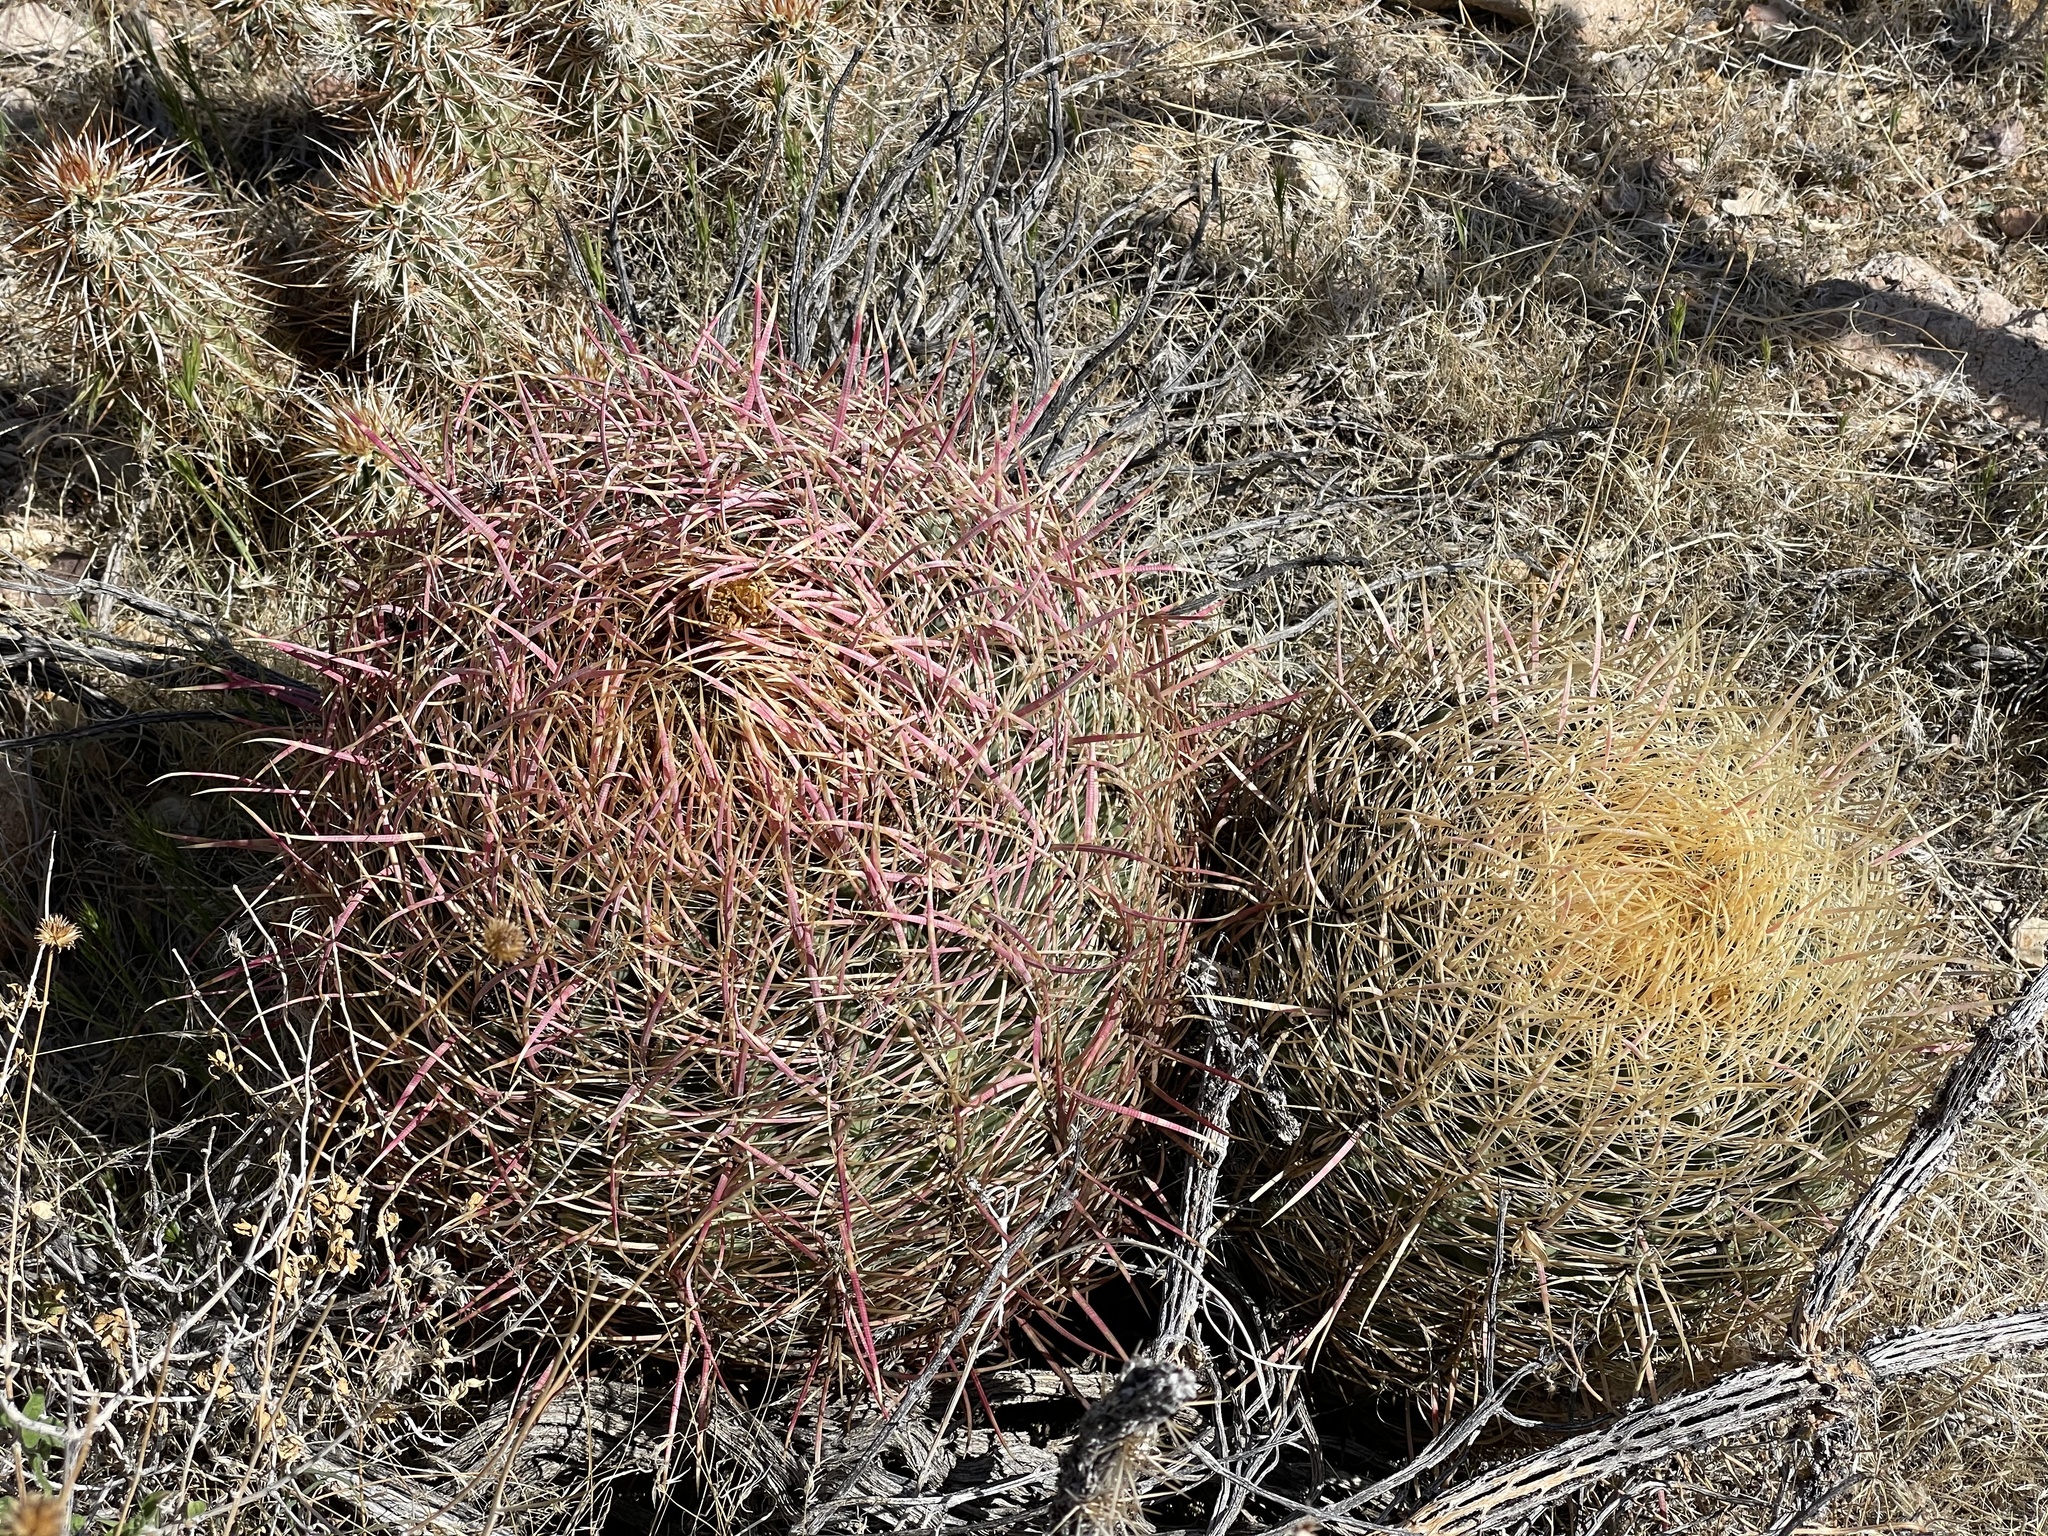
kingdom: Plantae
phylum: Tracheophyta
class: Magnoliopsida
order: Caryophyllales
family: Cactaceae
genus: Ferocactus
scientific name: Ferocactus cylindraceus
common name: California barrel cactus
